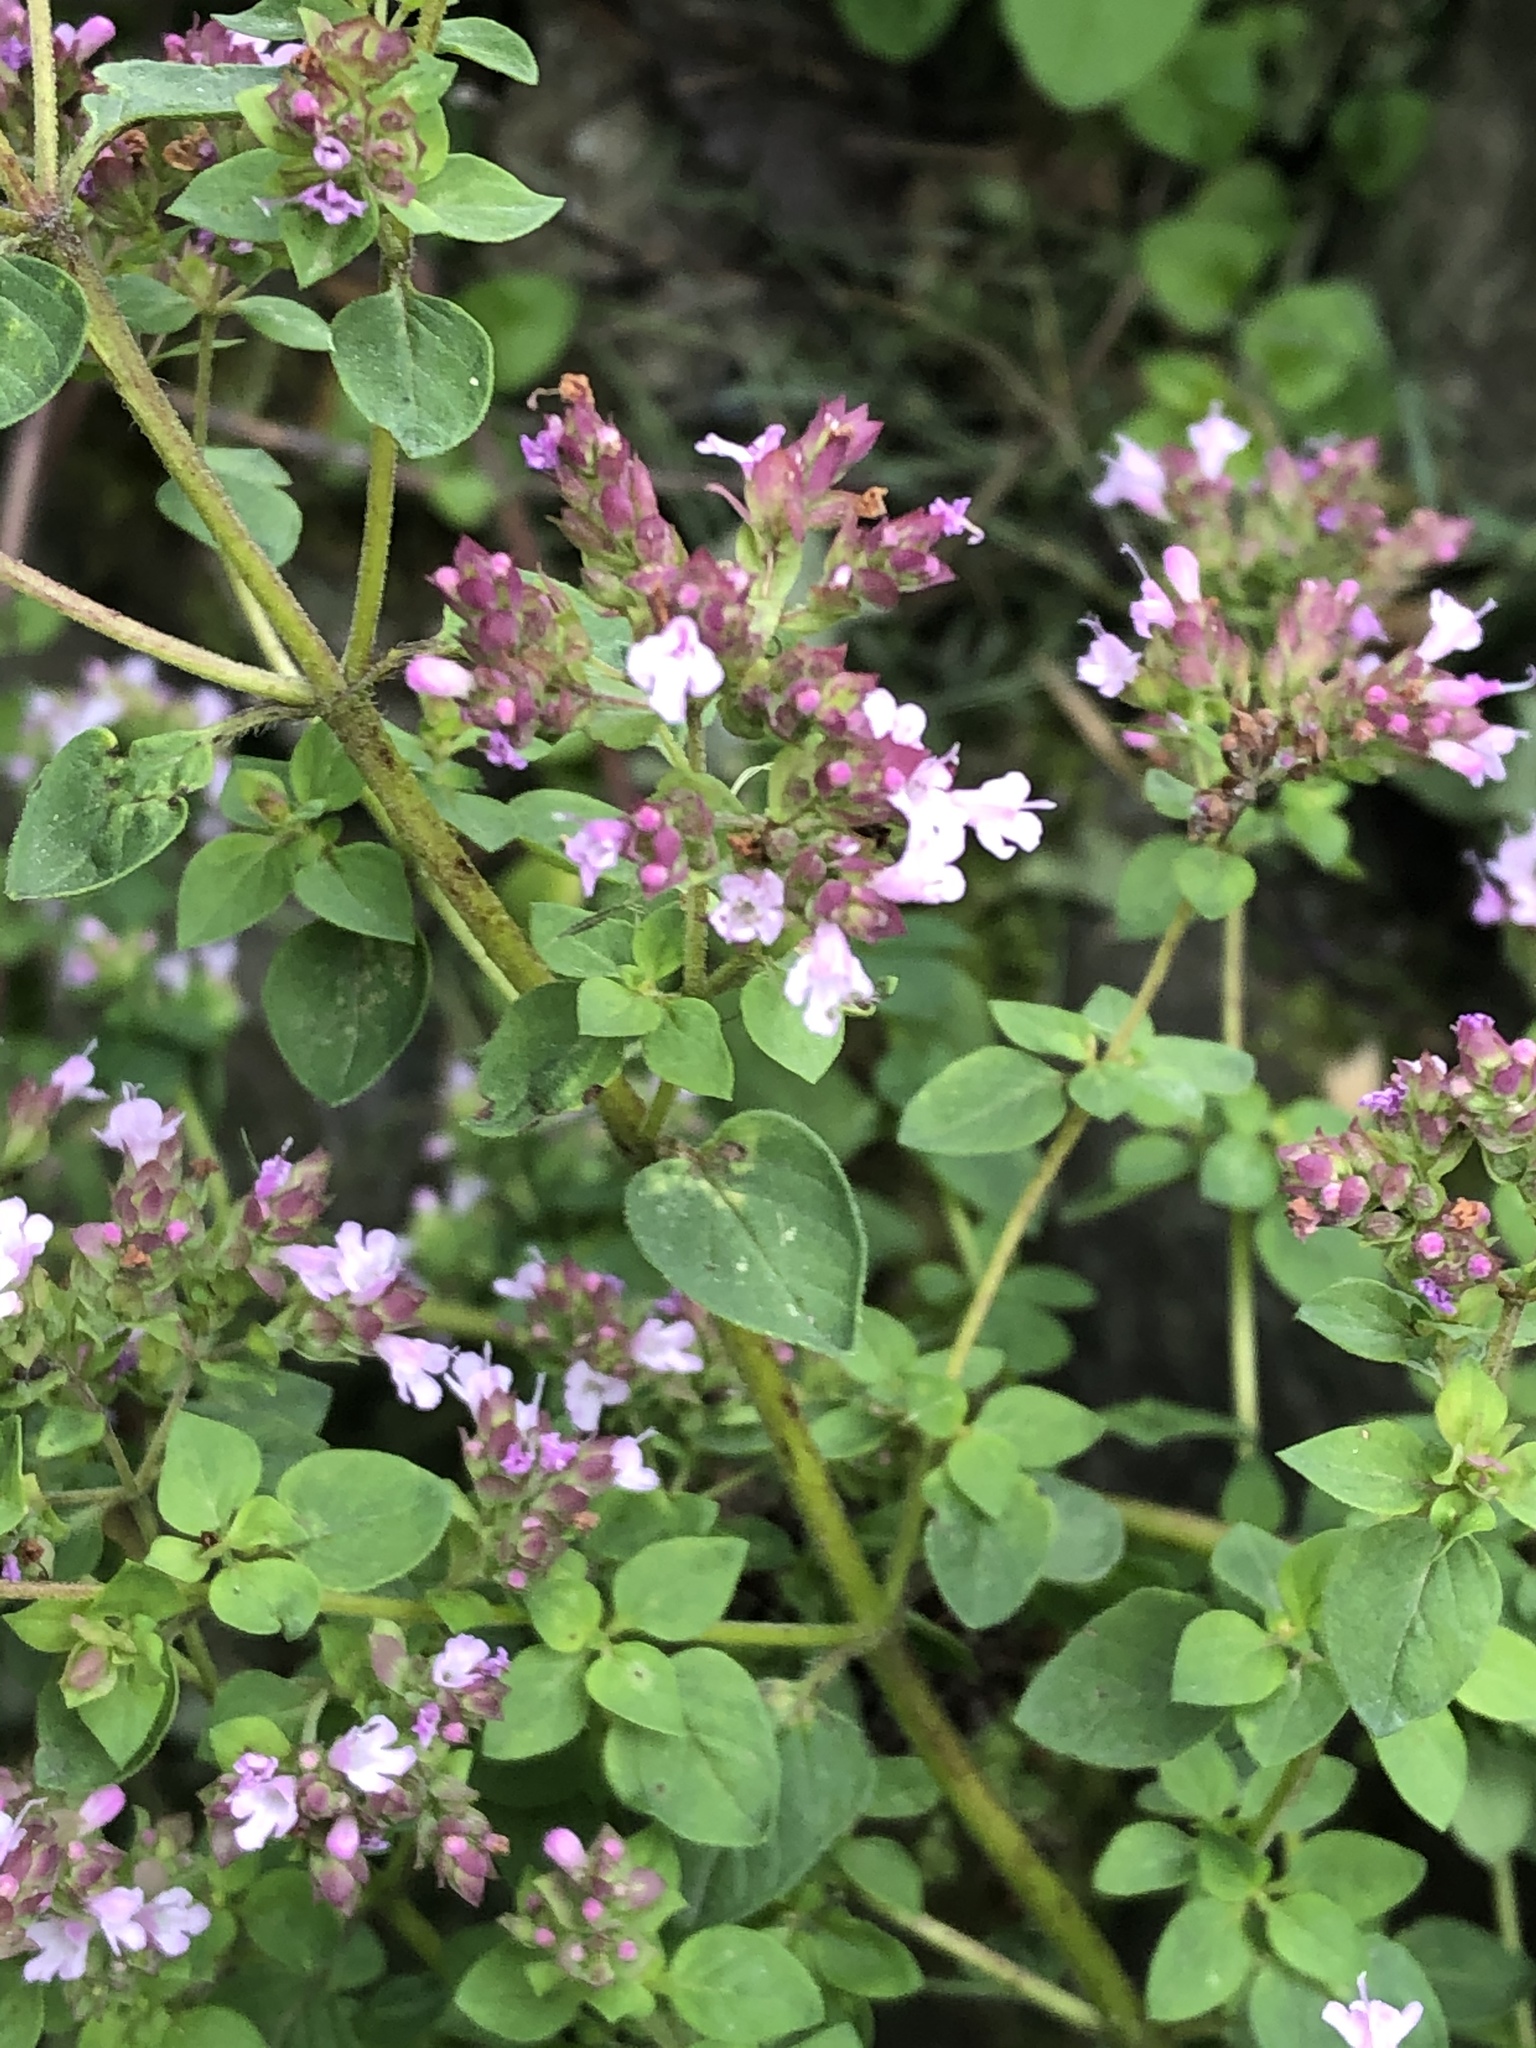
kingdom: Plantae
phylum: Tracheophyta
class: Magnoliopsida
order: Lamiales
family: Lamiaceae
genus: Origanum
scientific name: Origanum vulgare
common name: Wild marjoram
